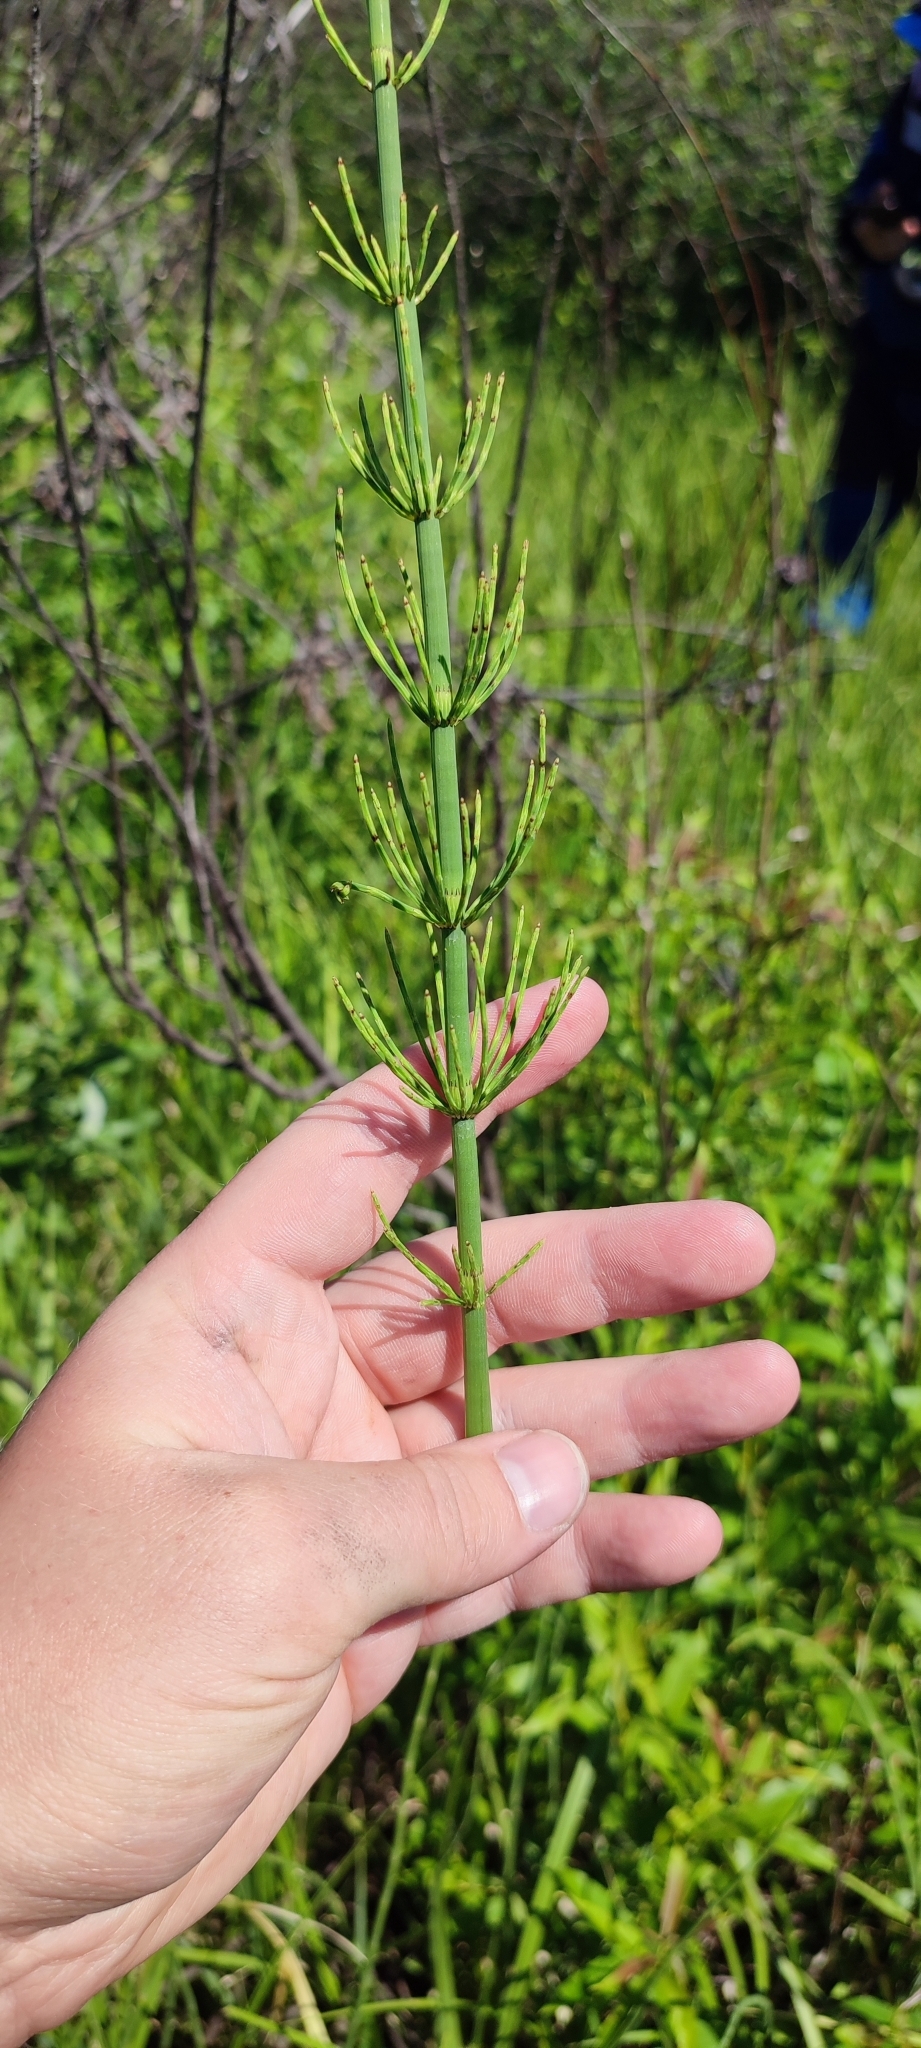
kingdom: Plantae
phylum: Tracheophyta
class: Polypodiopsida
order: Equisetales
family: Equisetaceae
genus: Equisetum
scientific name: Equisetum fluviatile
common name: Water horsetail
